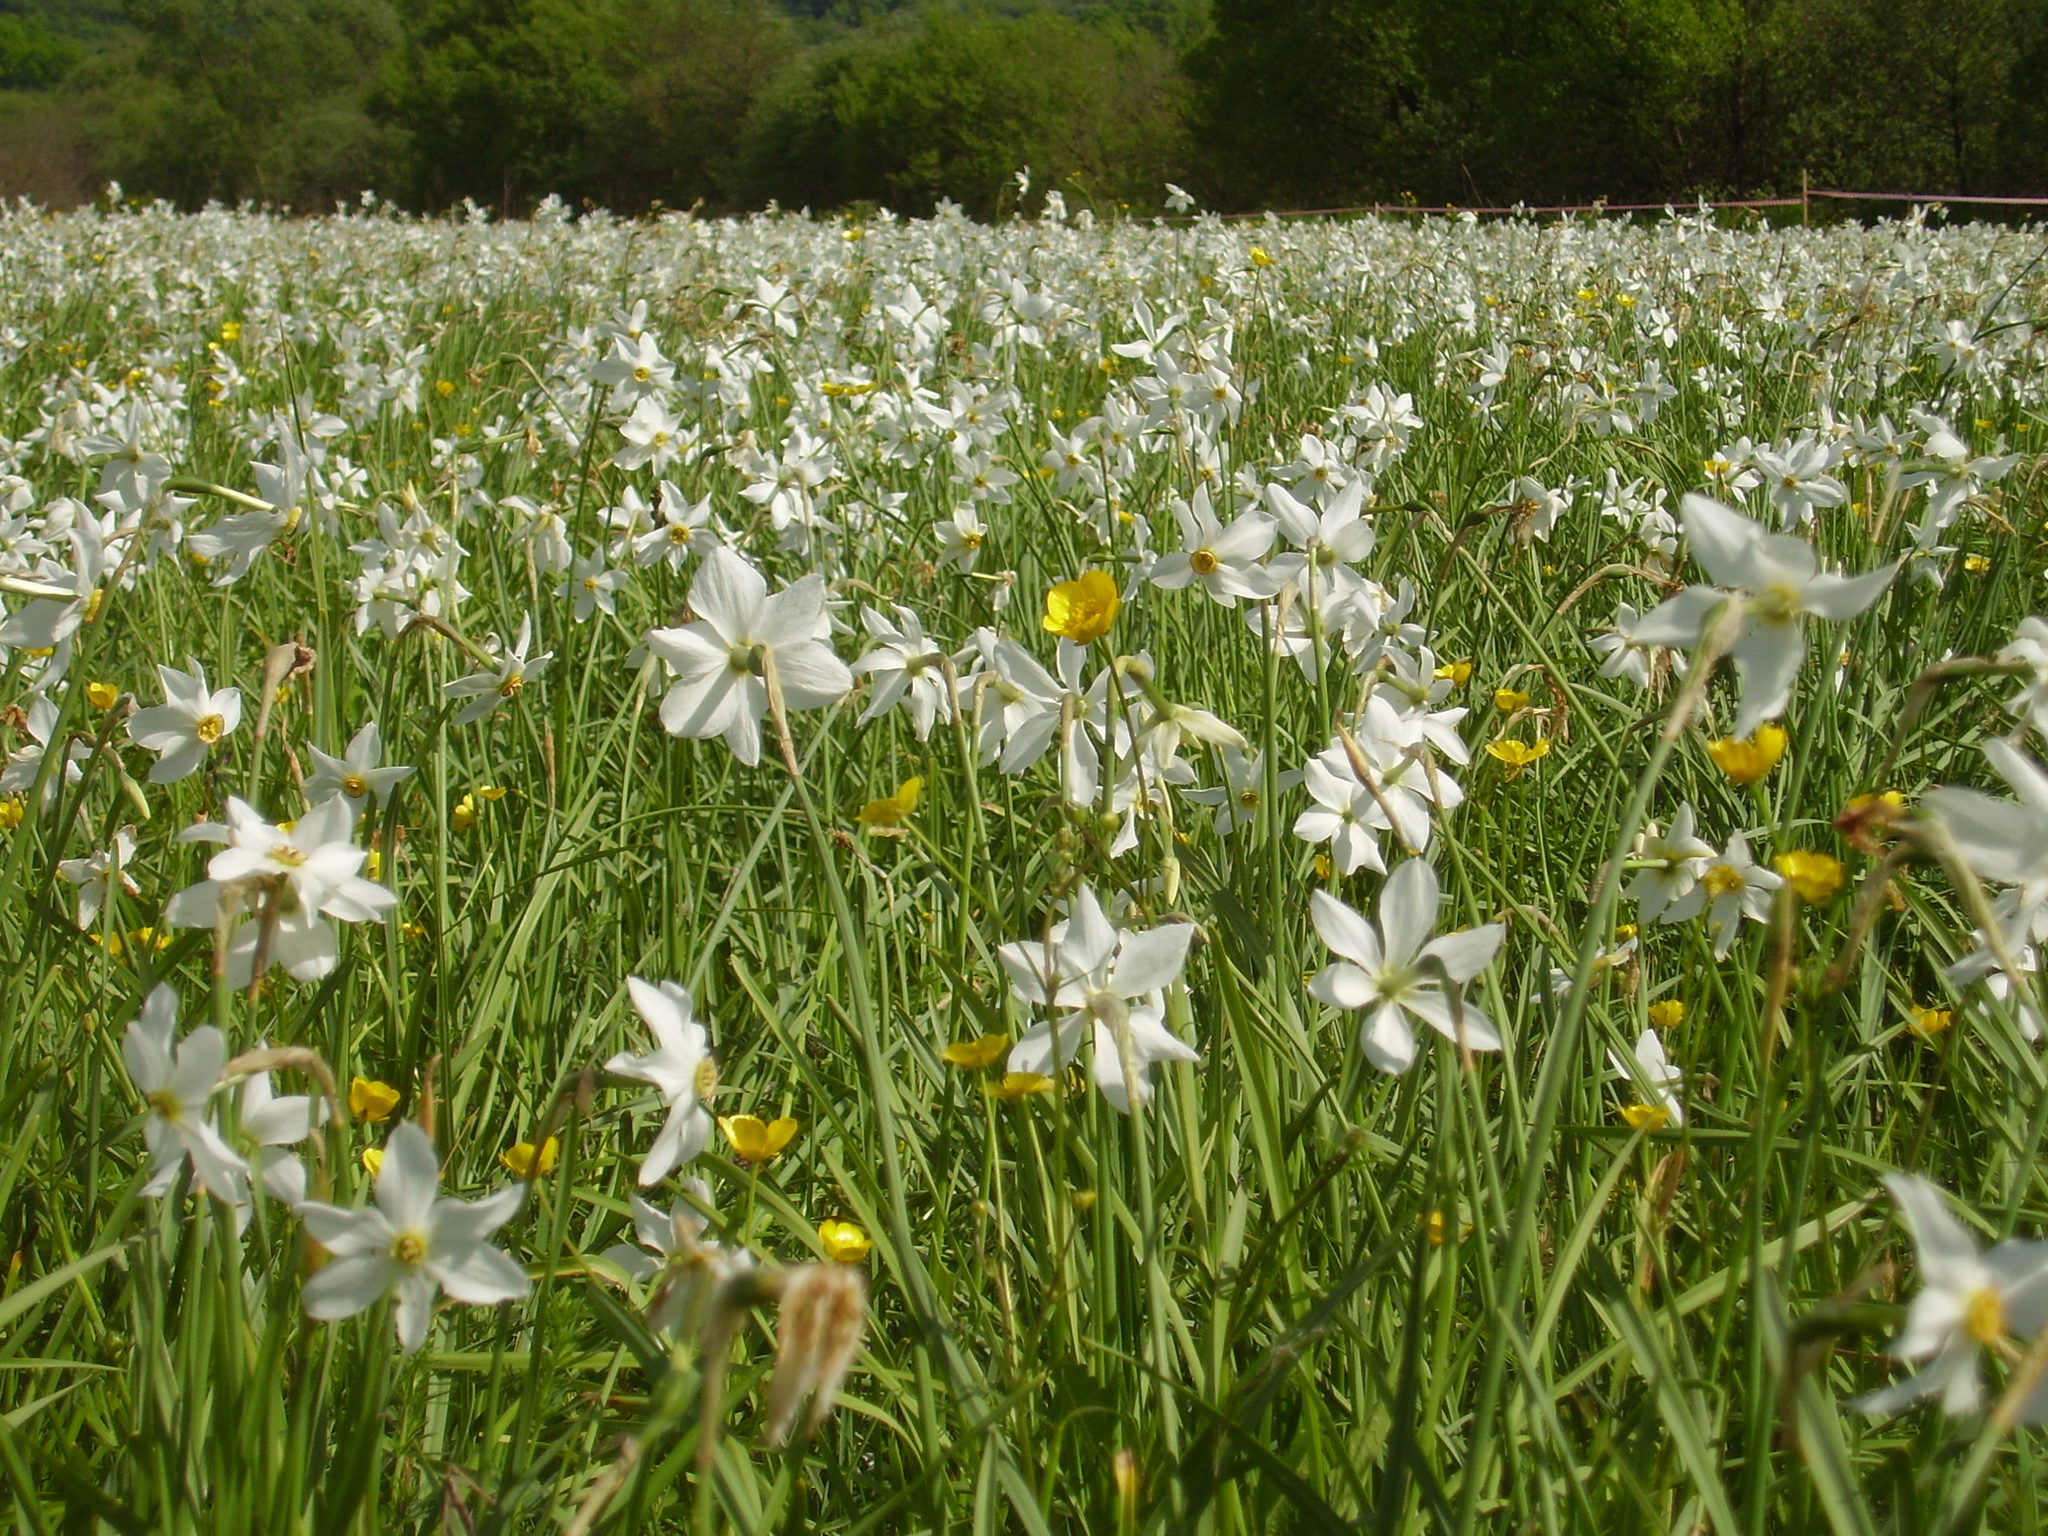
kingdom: Plantae
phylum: Tracheophyta
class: Liliopsida
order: Asparagales
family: Amaryllidaceae
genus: Narcissus
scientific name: Narcissus poeticus
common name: Pheasant's-eye daffodil
